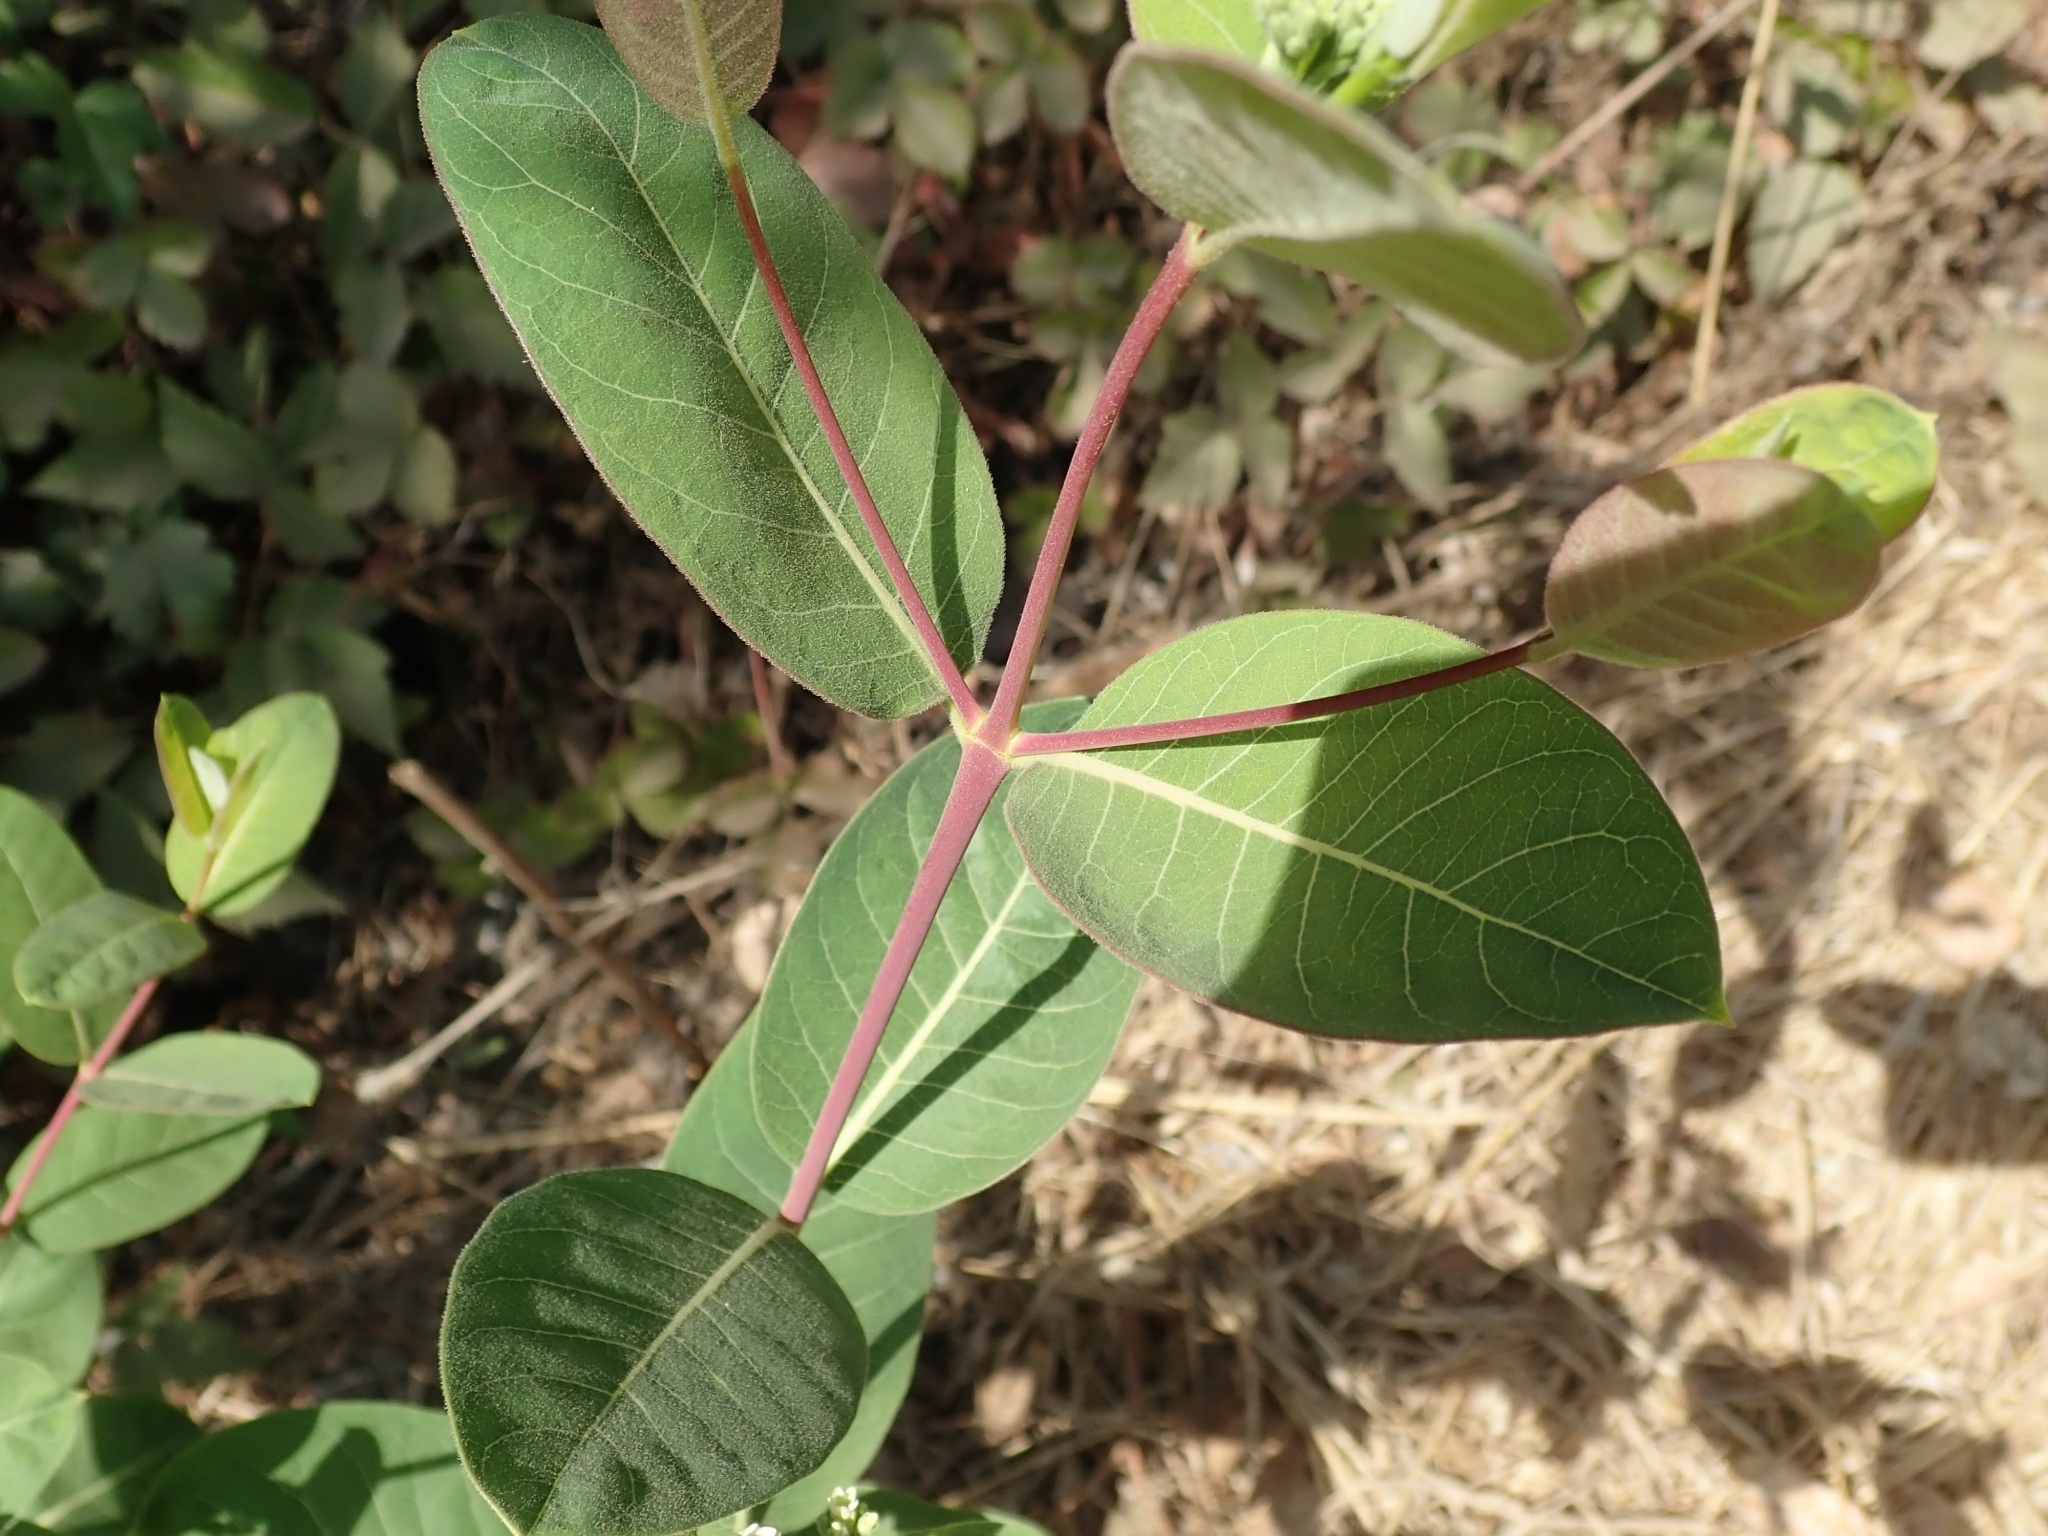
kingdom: Plantae
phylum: Tracheophyta
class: Magnoliopsida
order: Gentianales
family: Apocynaceae
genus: Apocynum
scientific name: Apocynum cannabinum
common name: Hemp dogbane
